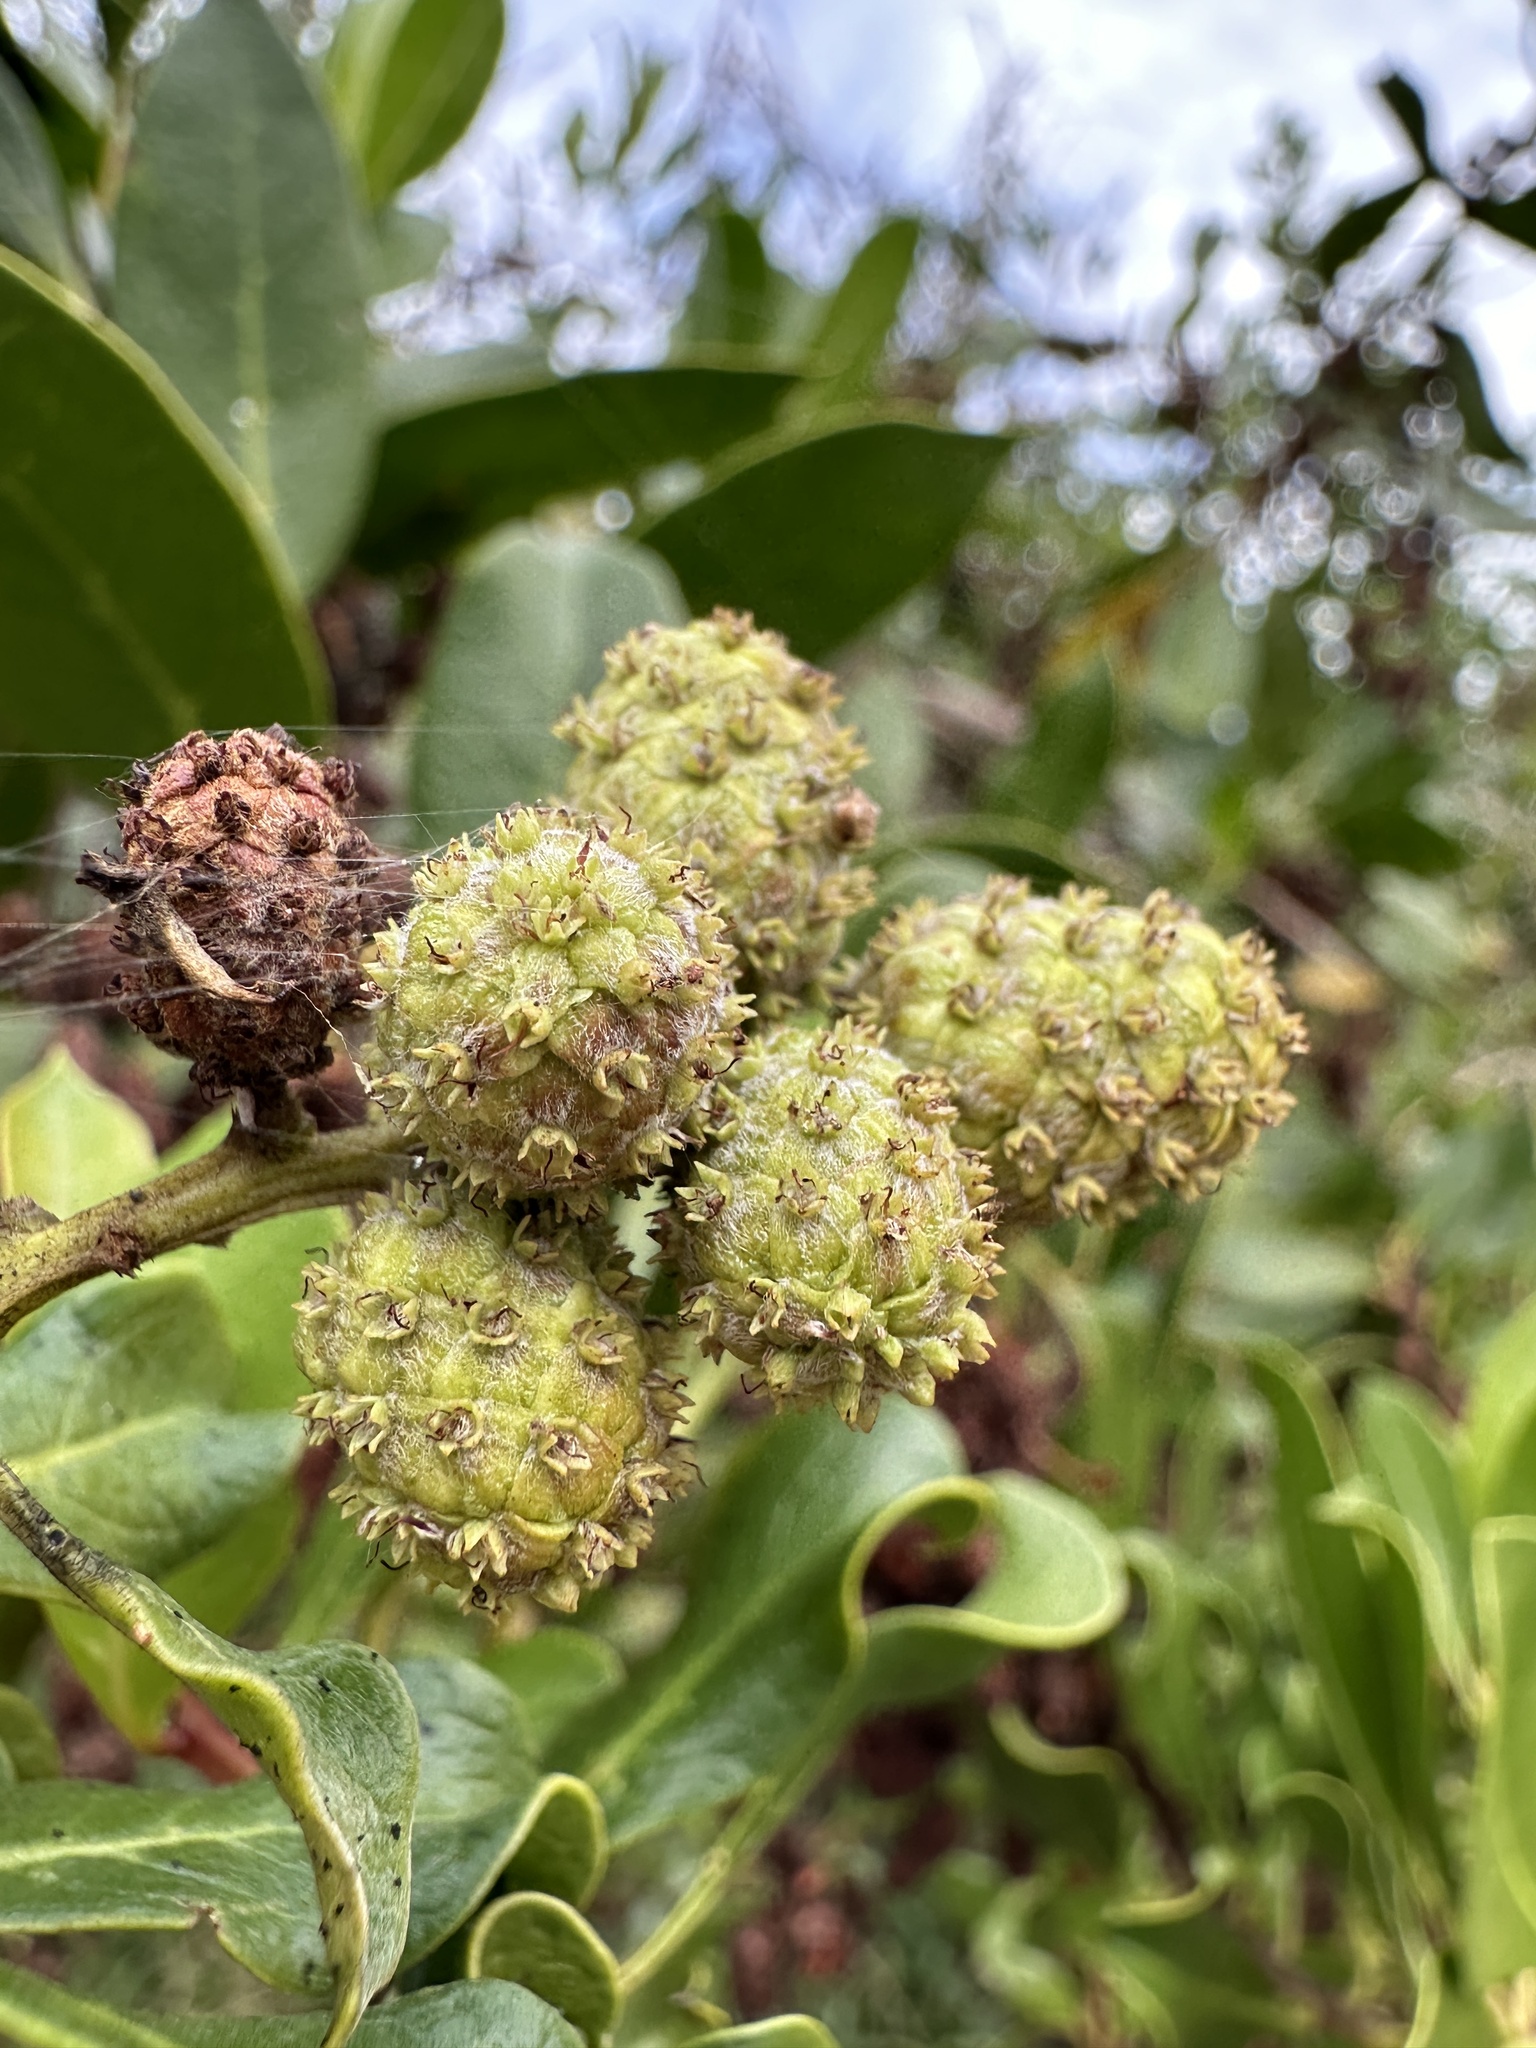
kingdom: Plantae
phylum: Tracheophyta
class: Magnoliopsida
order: Myrtales
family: Combretaceae
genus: Conocarpus
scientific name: Conocarpus erectus
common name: Button mangrove
